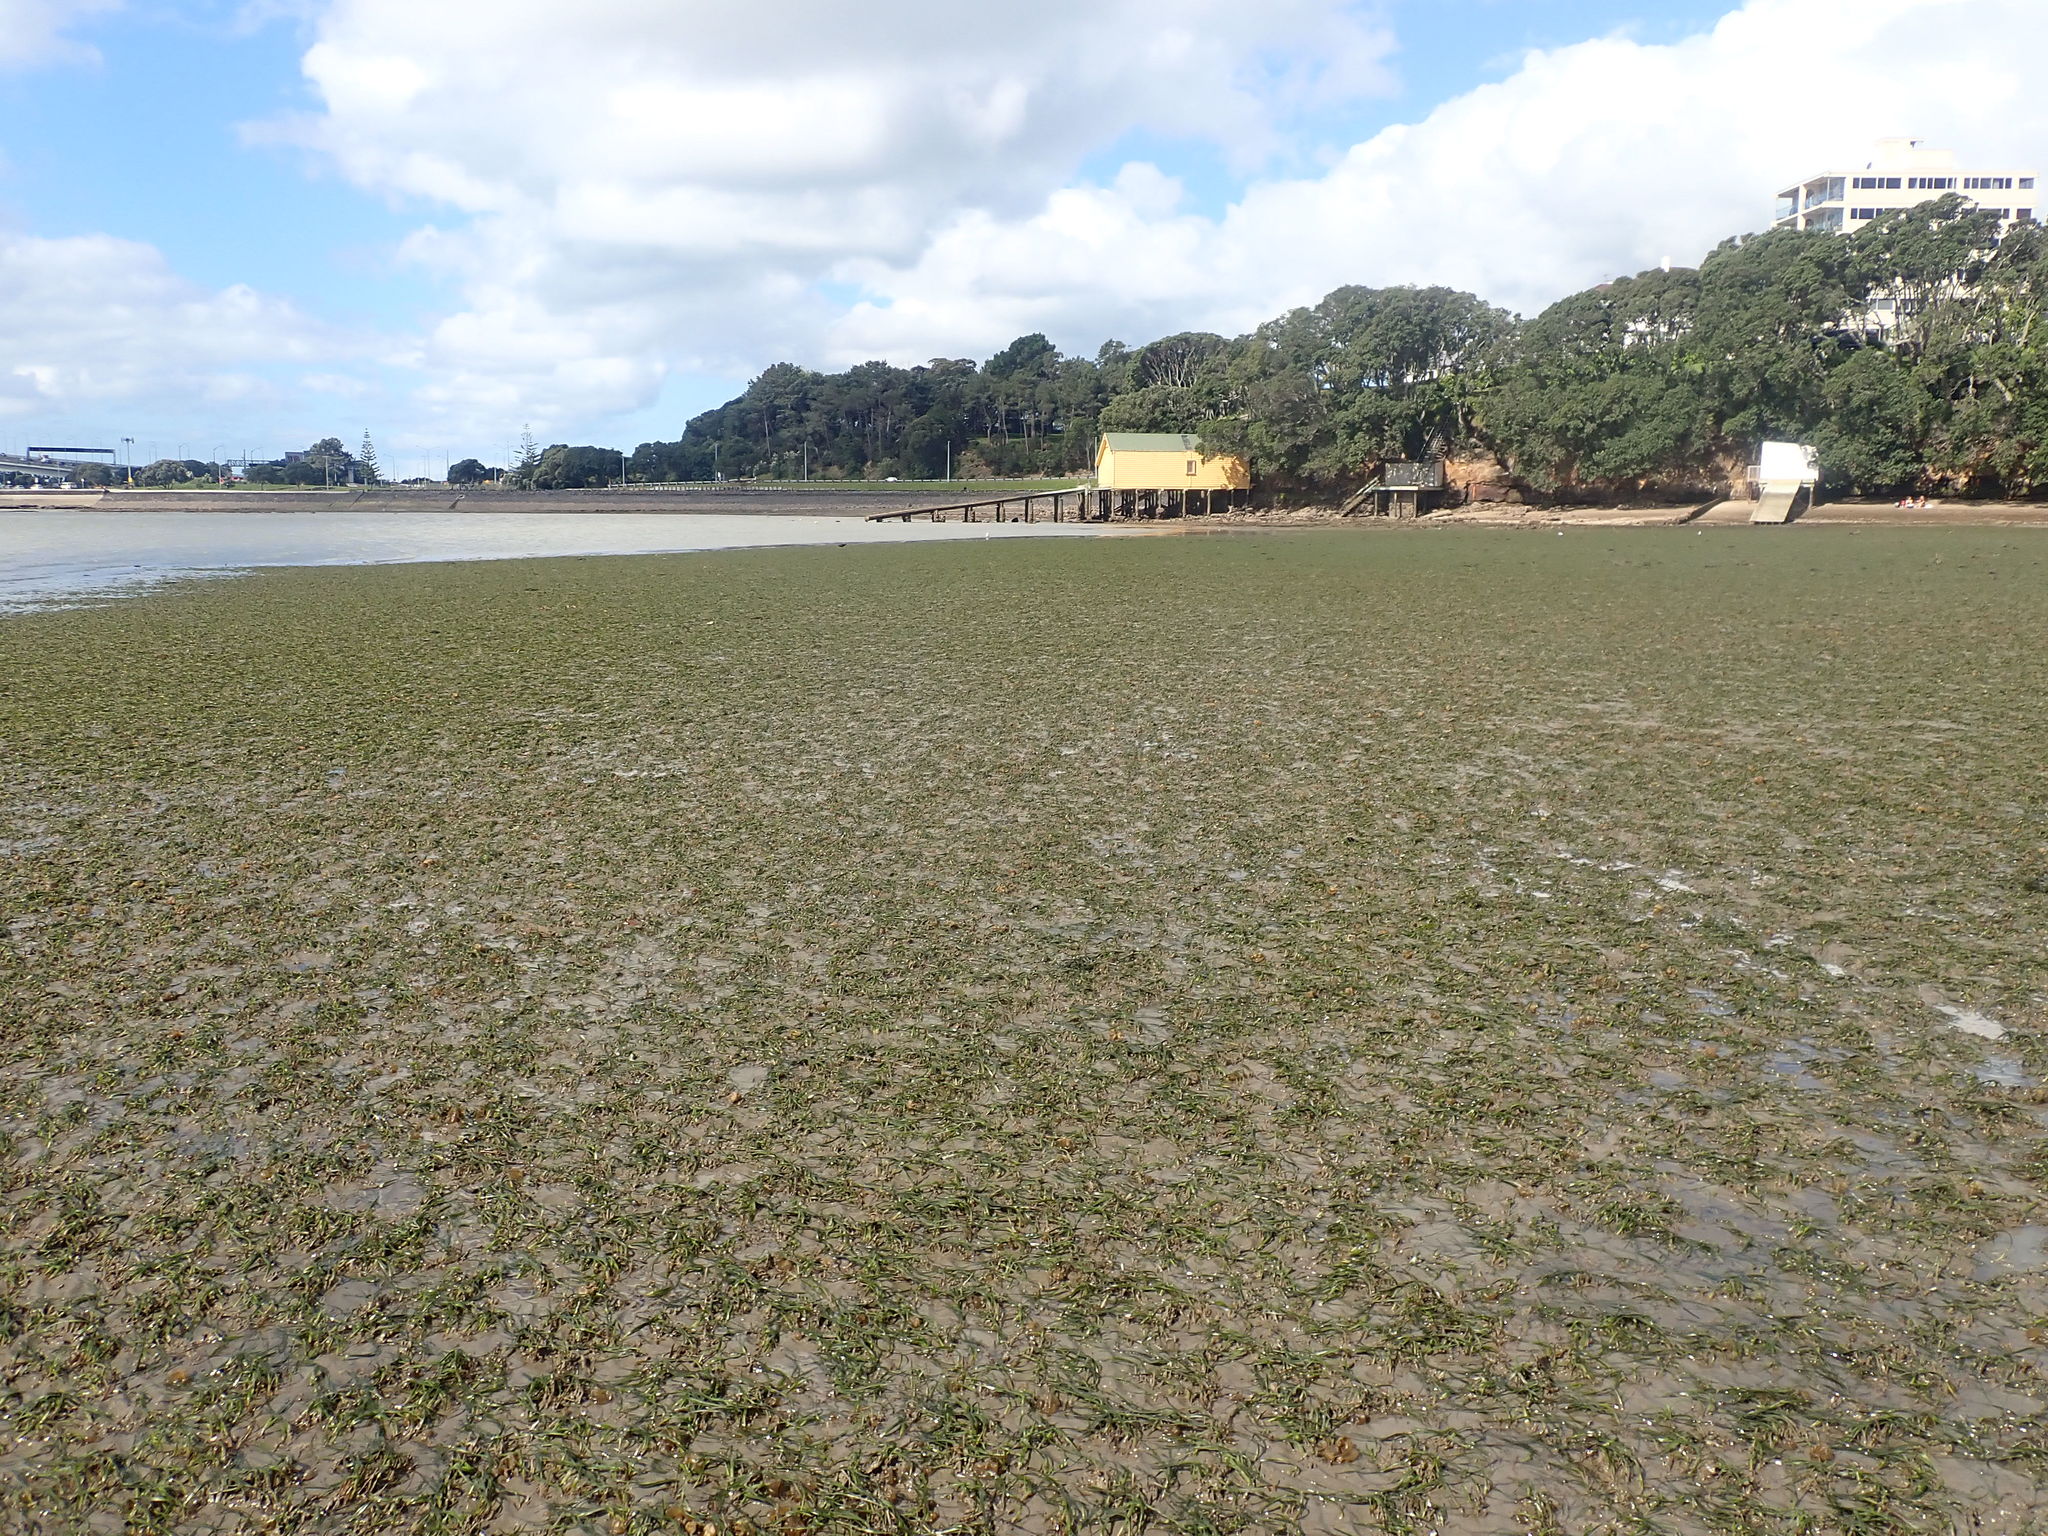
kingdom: Plantae
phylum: Tracheophyta
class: Liliopsida
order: Alismatales
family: Zosteraceae
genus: Zostera
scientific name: Zostera novazelandica
